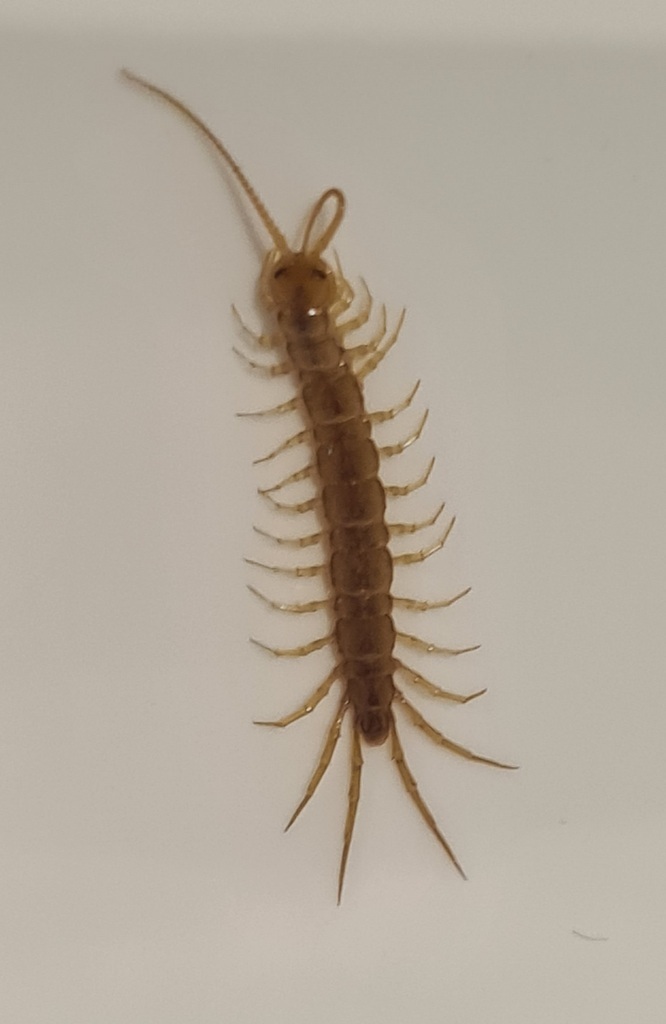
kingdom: Animalia
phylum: Arthropoda
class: Chilopoda
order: Lithobiomorpha
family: Lithobiidae
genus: Lithobius
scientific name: Lithobius melanops
